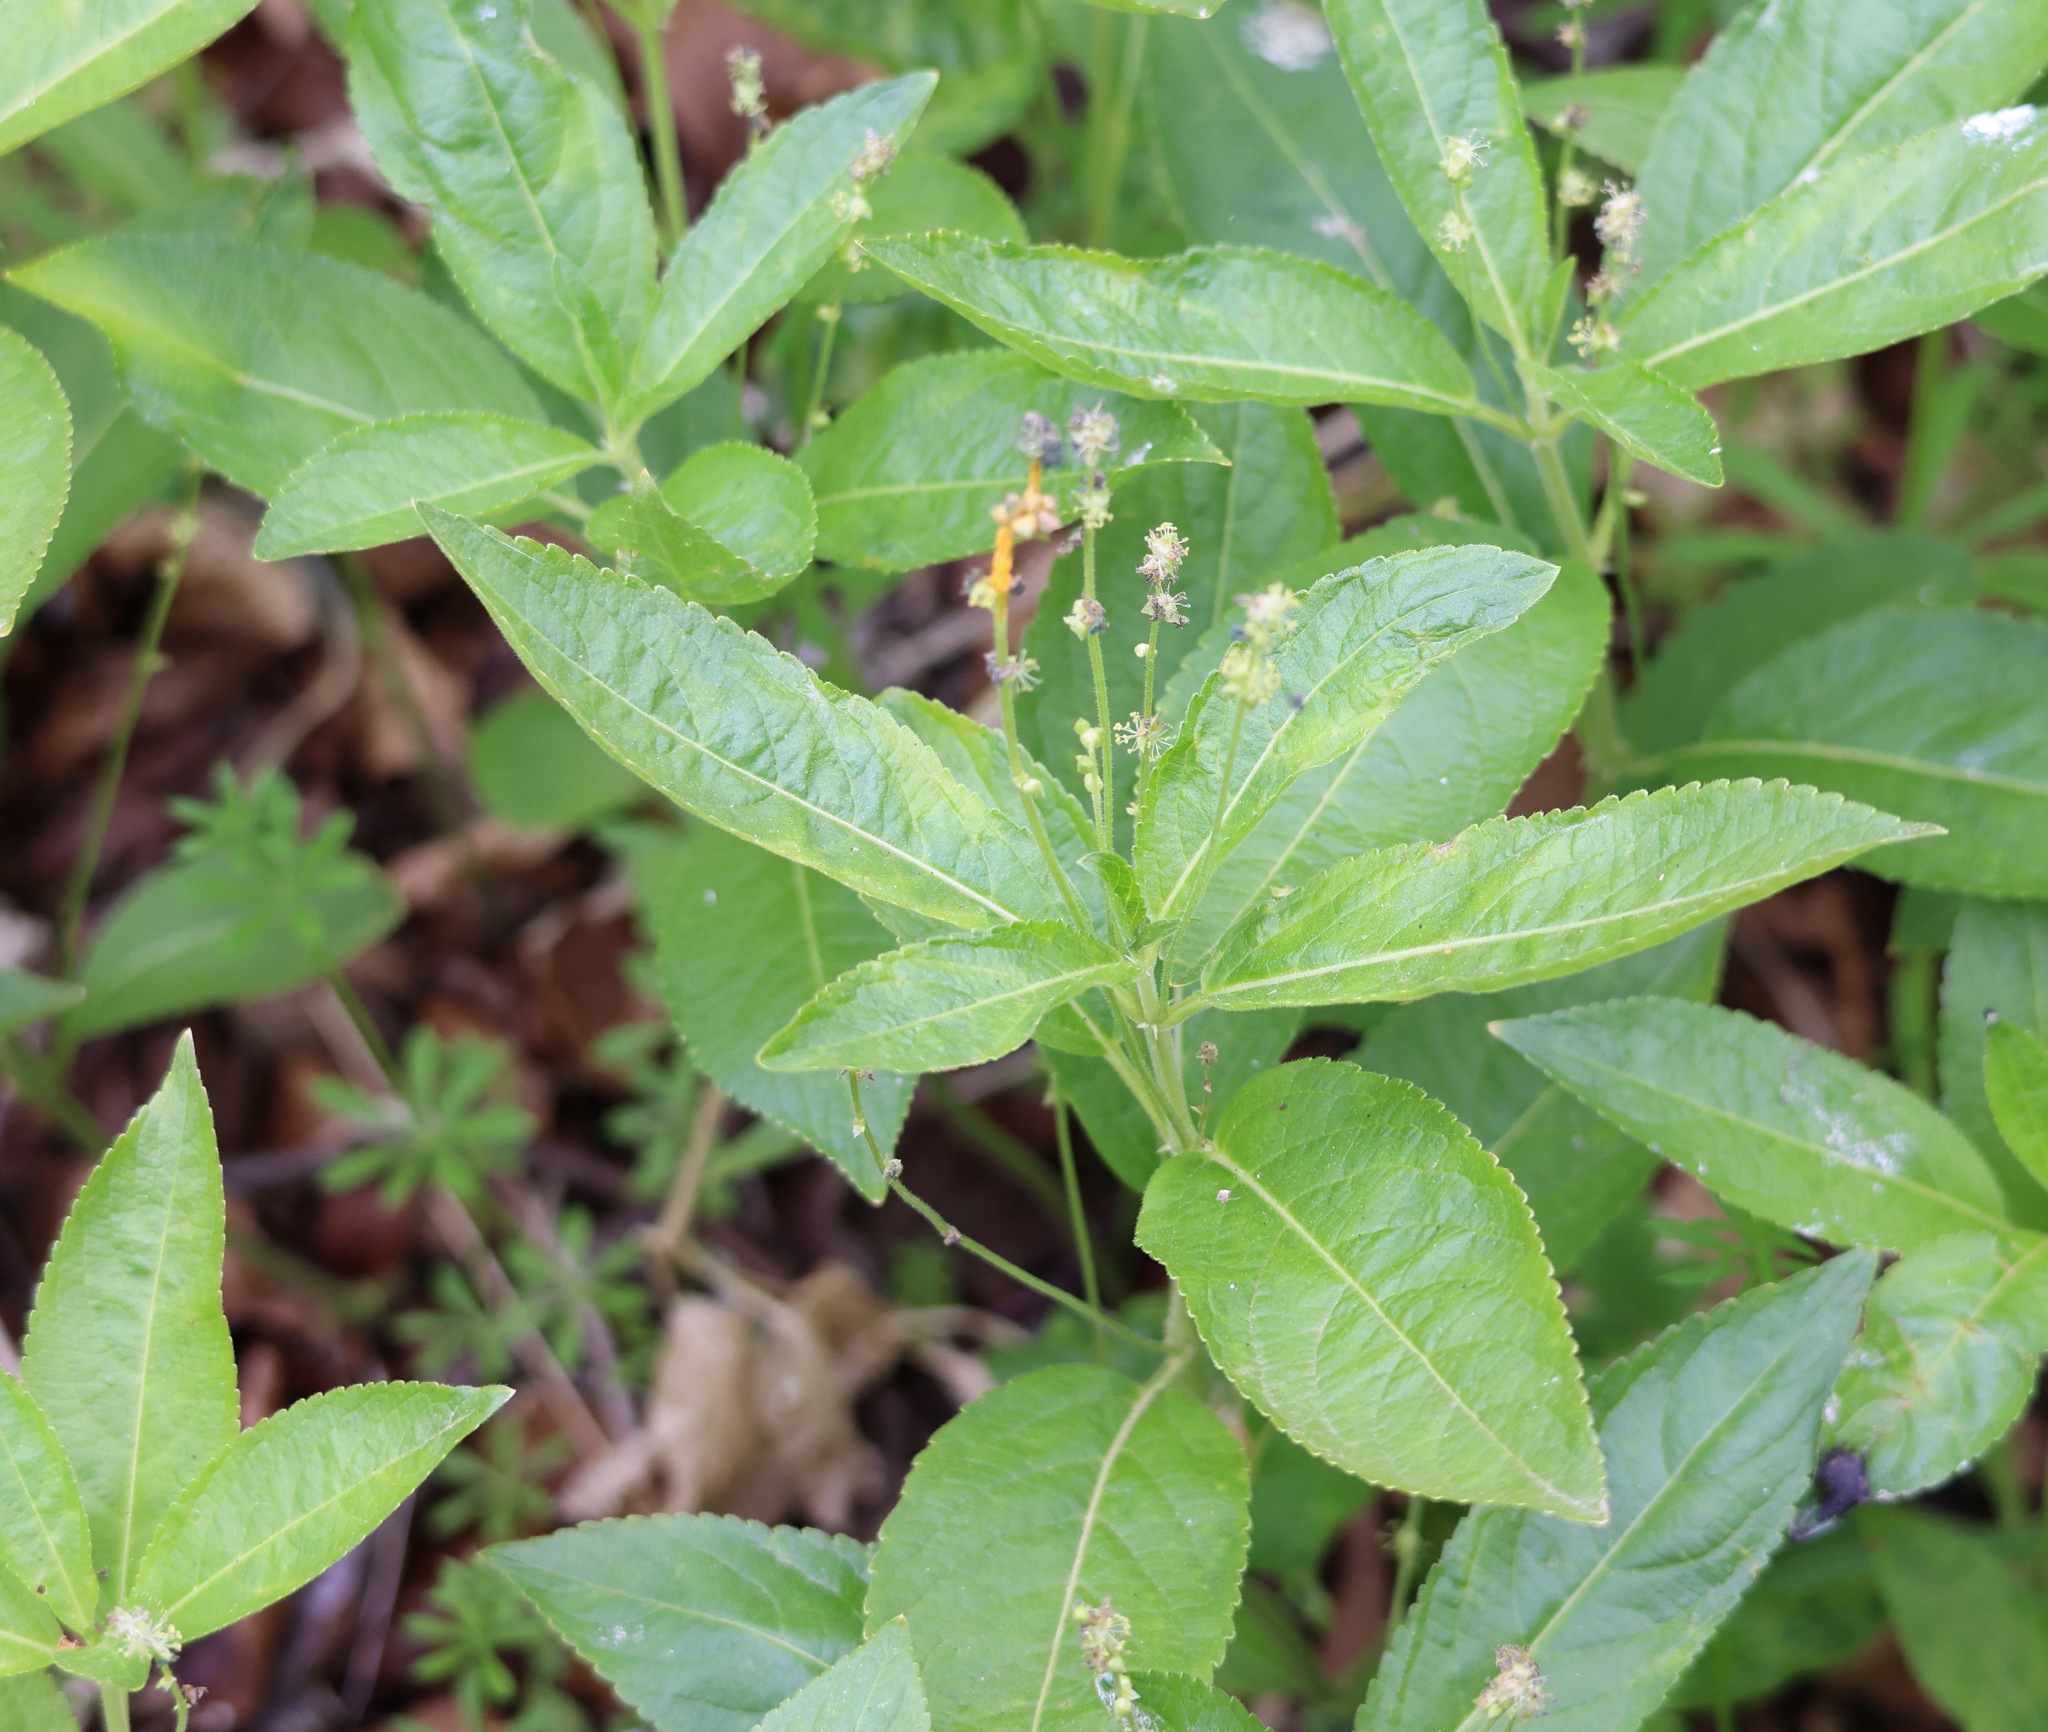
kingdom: Plantae
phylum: Tracheophyta
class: Magnoliopsida
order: Malpighiales
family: Euphorbiaceae
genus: Mercurialis
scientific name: Mercurialis perennis
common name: Dog mercury
